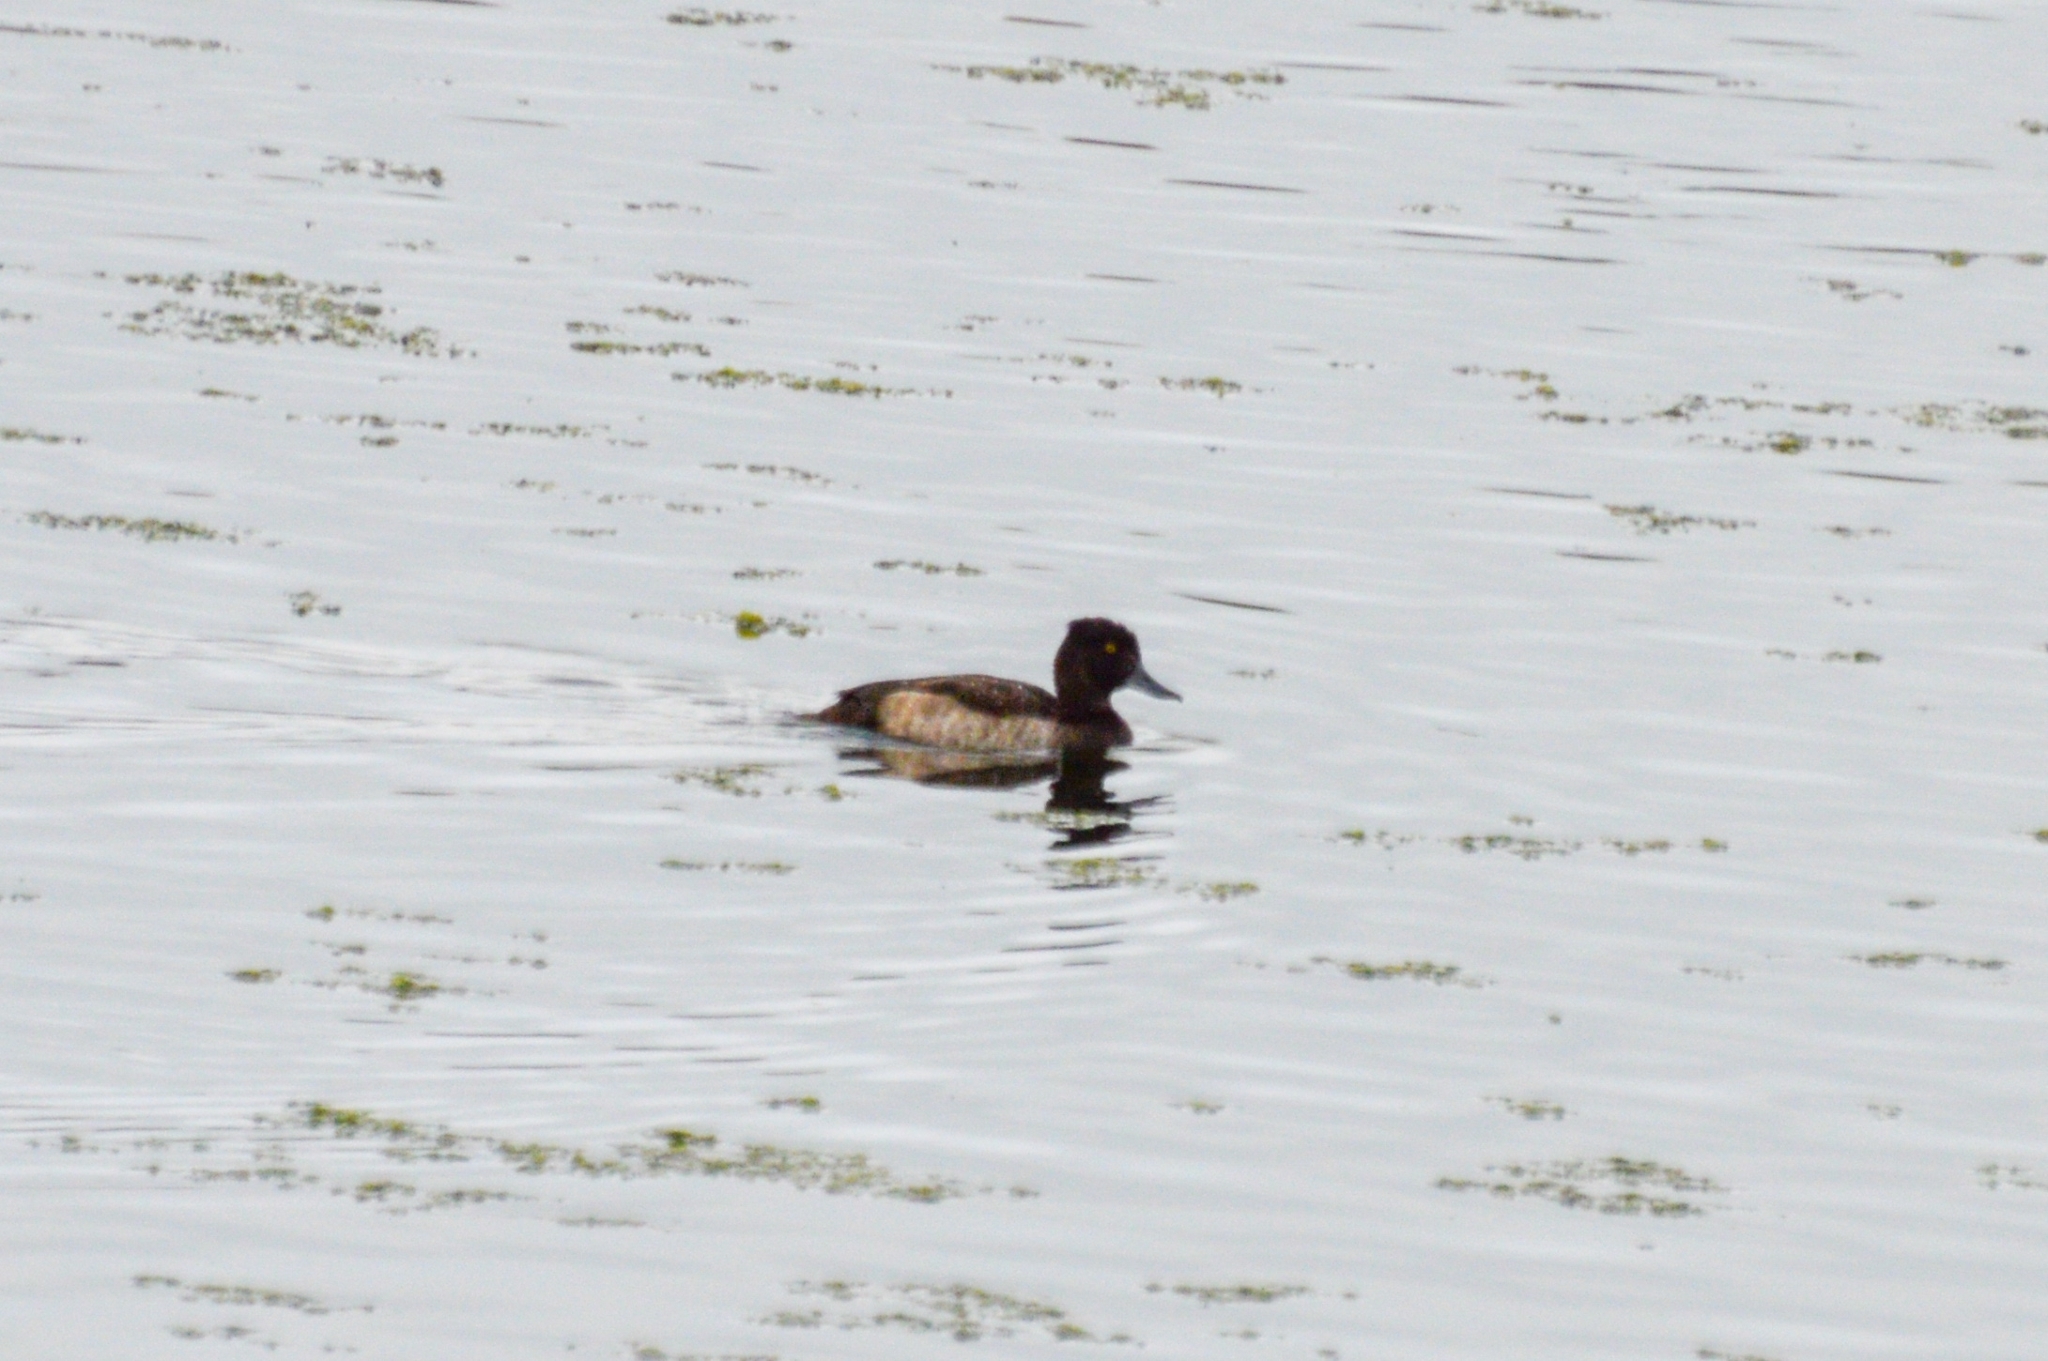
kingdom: Animalia
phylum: Chordata
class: Aves
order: Anseriformes
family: Anatidae
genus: Aythya
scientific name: Aythya fuligula
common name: Tufted duck
